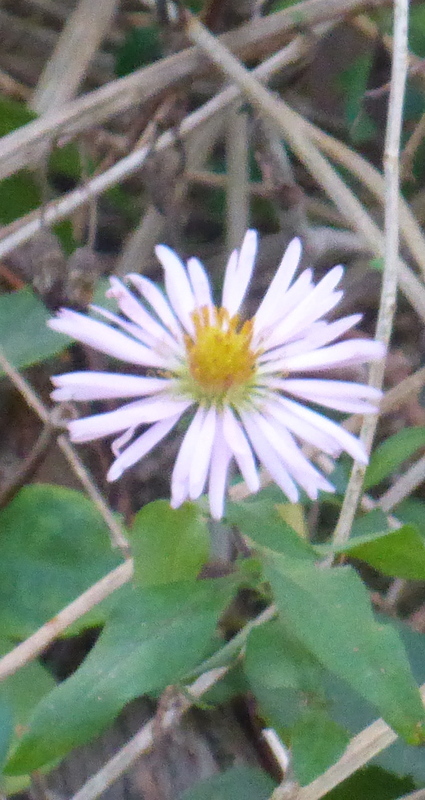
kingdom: Plantae
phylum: Tracheophyta
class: Magnoliopsida
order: Asterales
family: Asteraceae
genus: Ampelaster
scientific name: Ampelaster carolinianus
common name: Climbing aster
